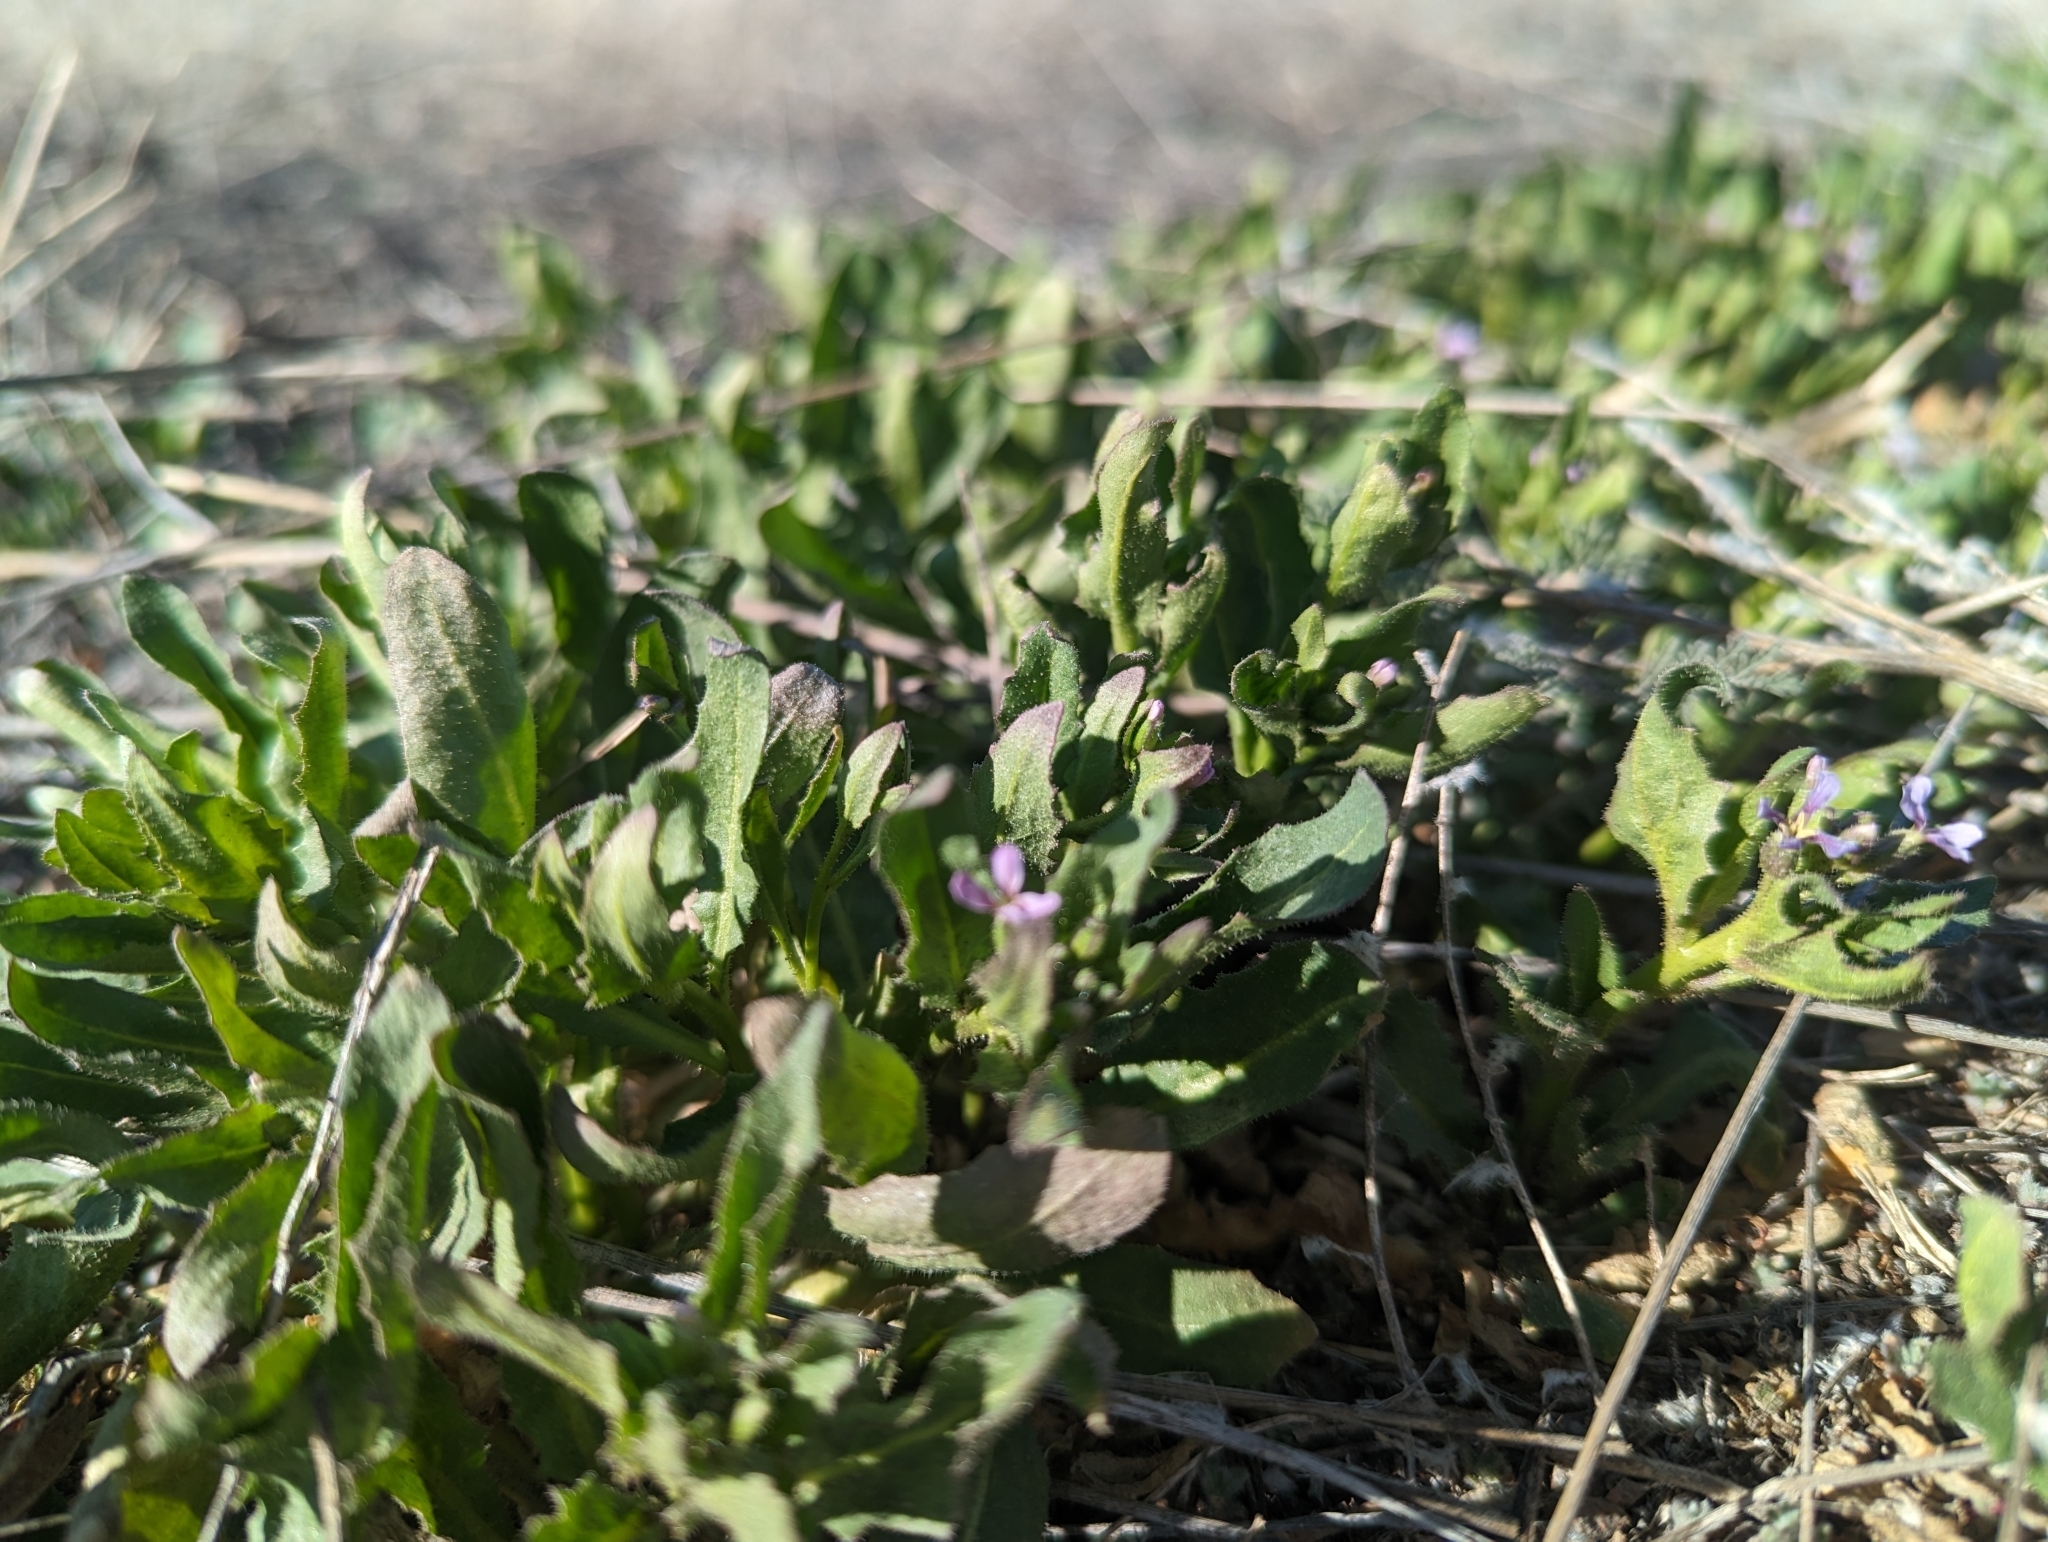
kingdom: Plantae
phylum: Tracheophyta
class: Magnoliopsida
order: Brassicales
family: Brassicaceae
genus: Chorispora
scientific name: Chorispora tenella
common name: Crossflower
